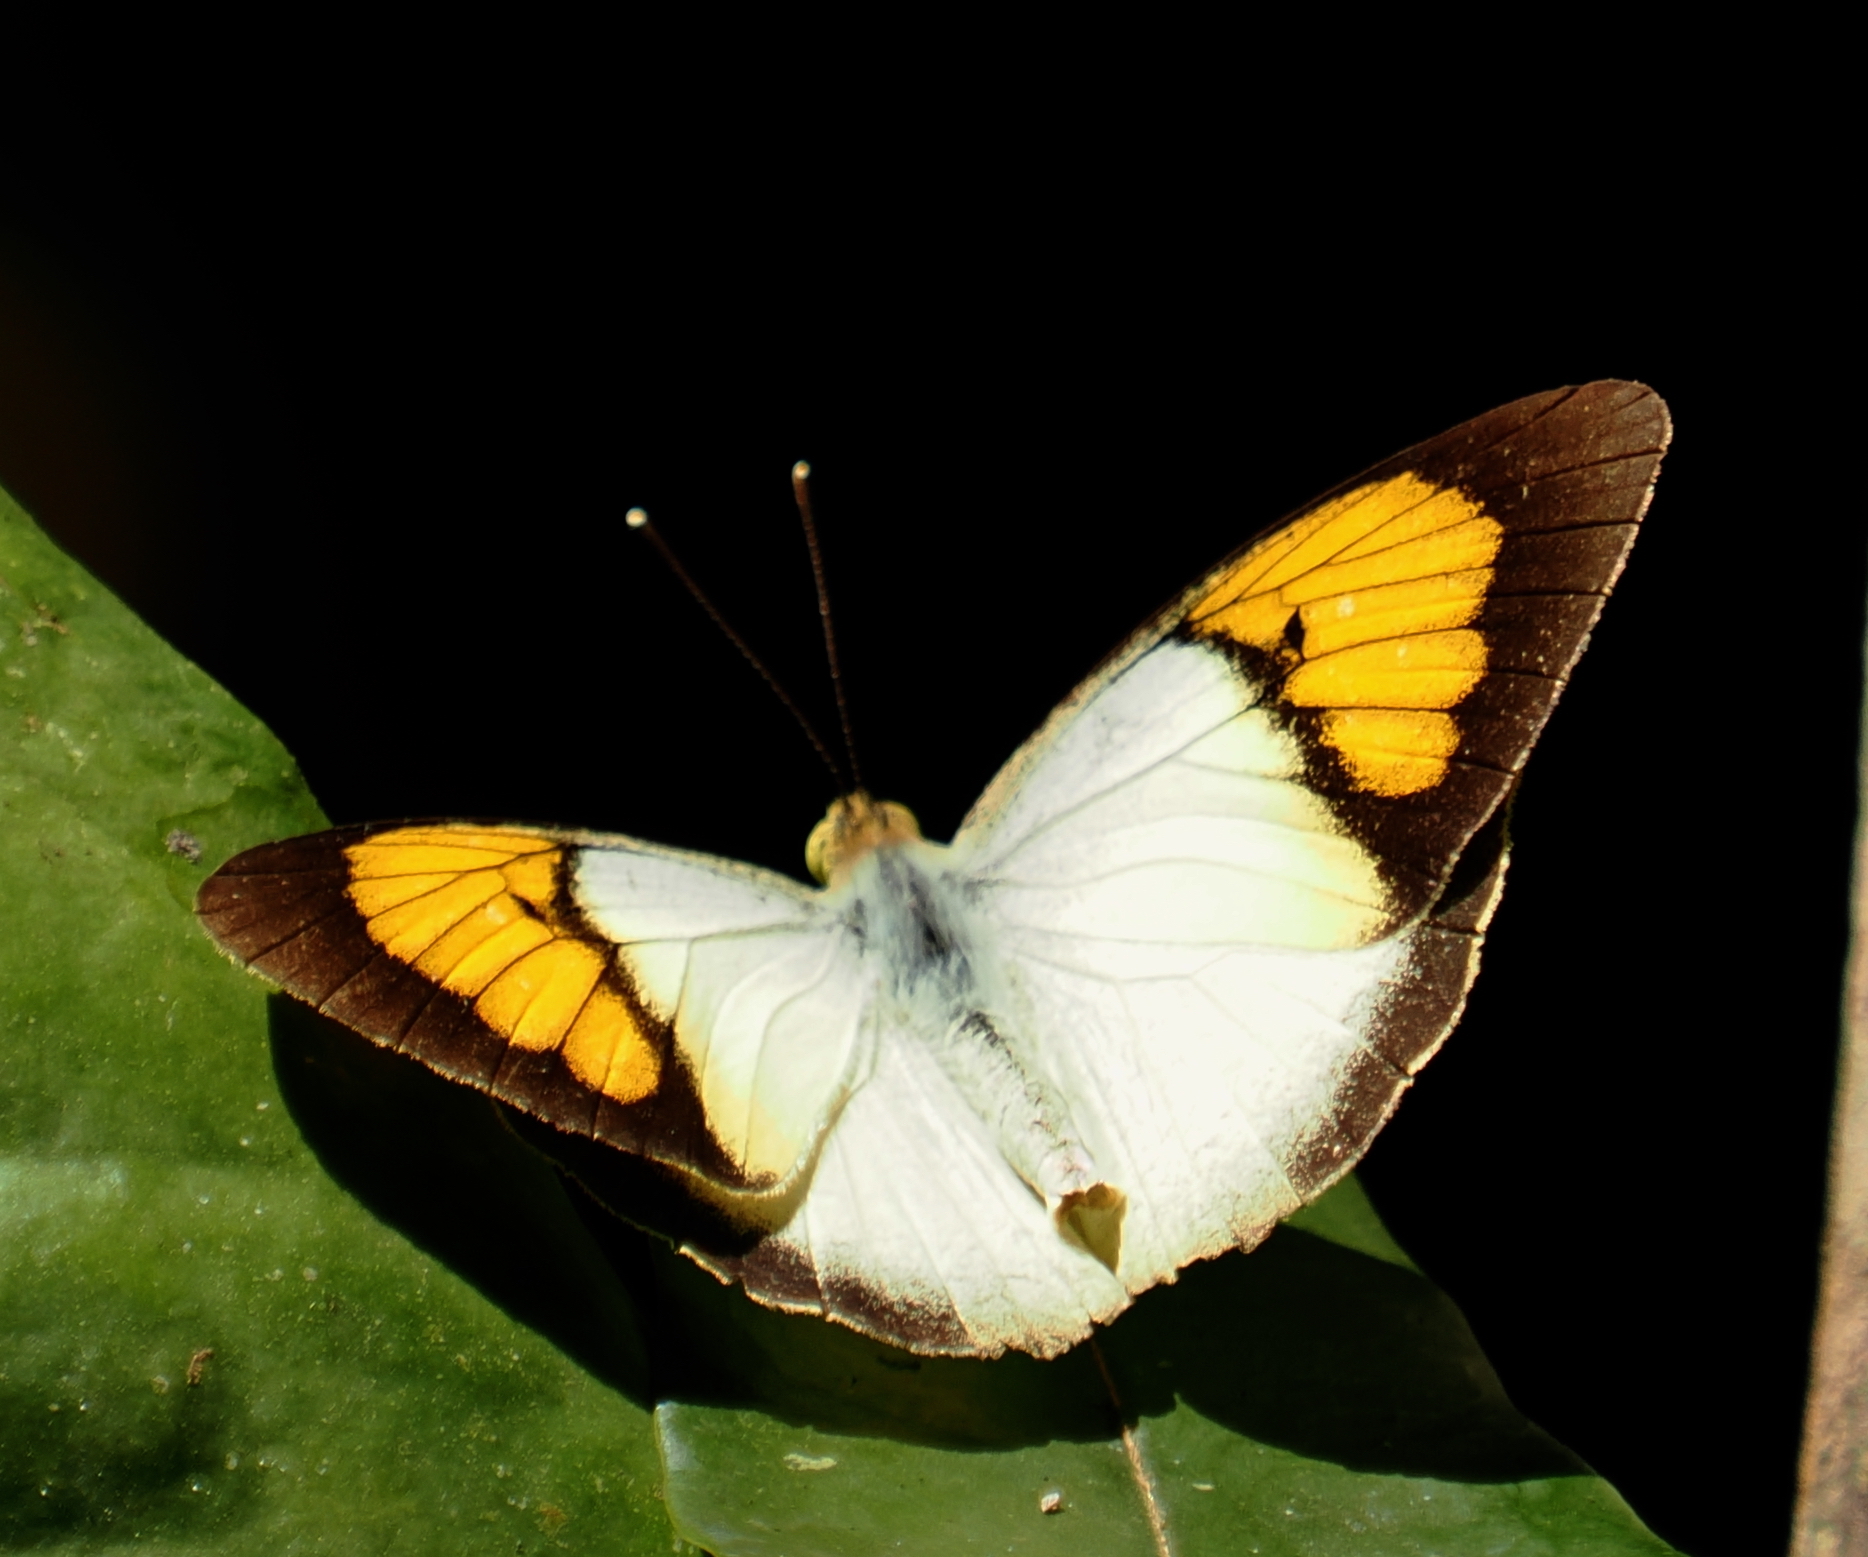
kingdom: Animalia
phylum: Arthropoda
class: Insecta
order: Lepidoptera
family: Pieridae
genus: Ixias
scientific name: Ixias pyrene
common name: Yellow orange tip
